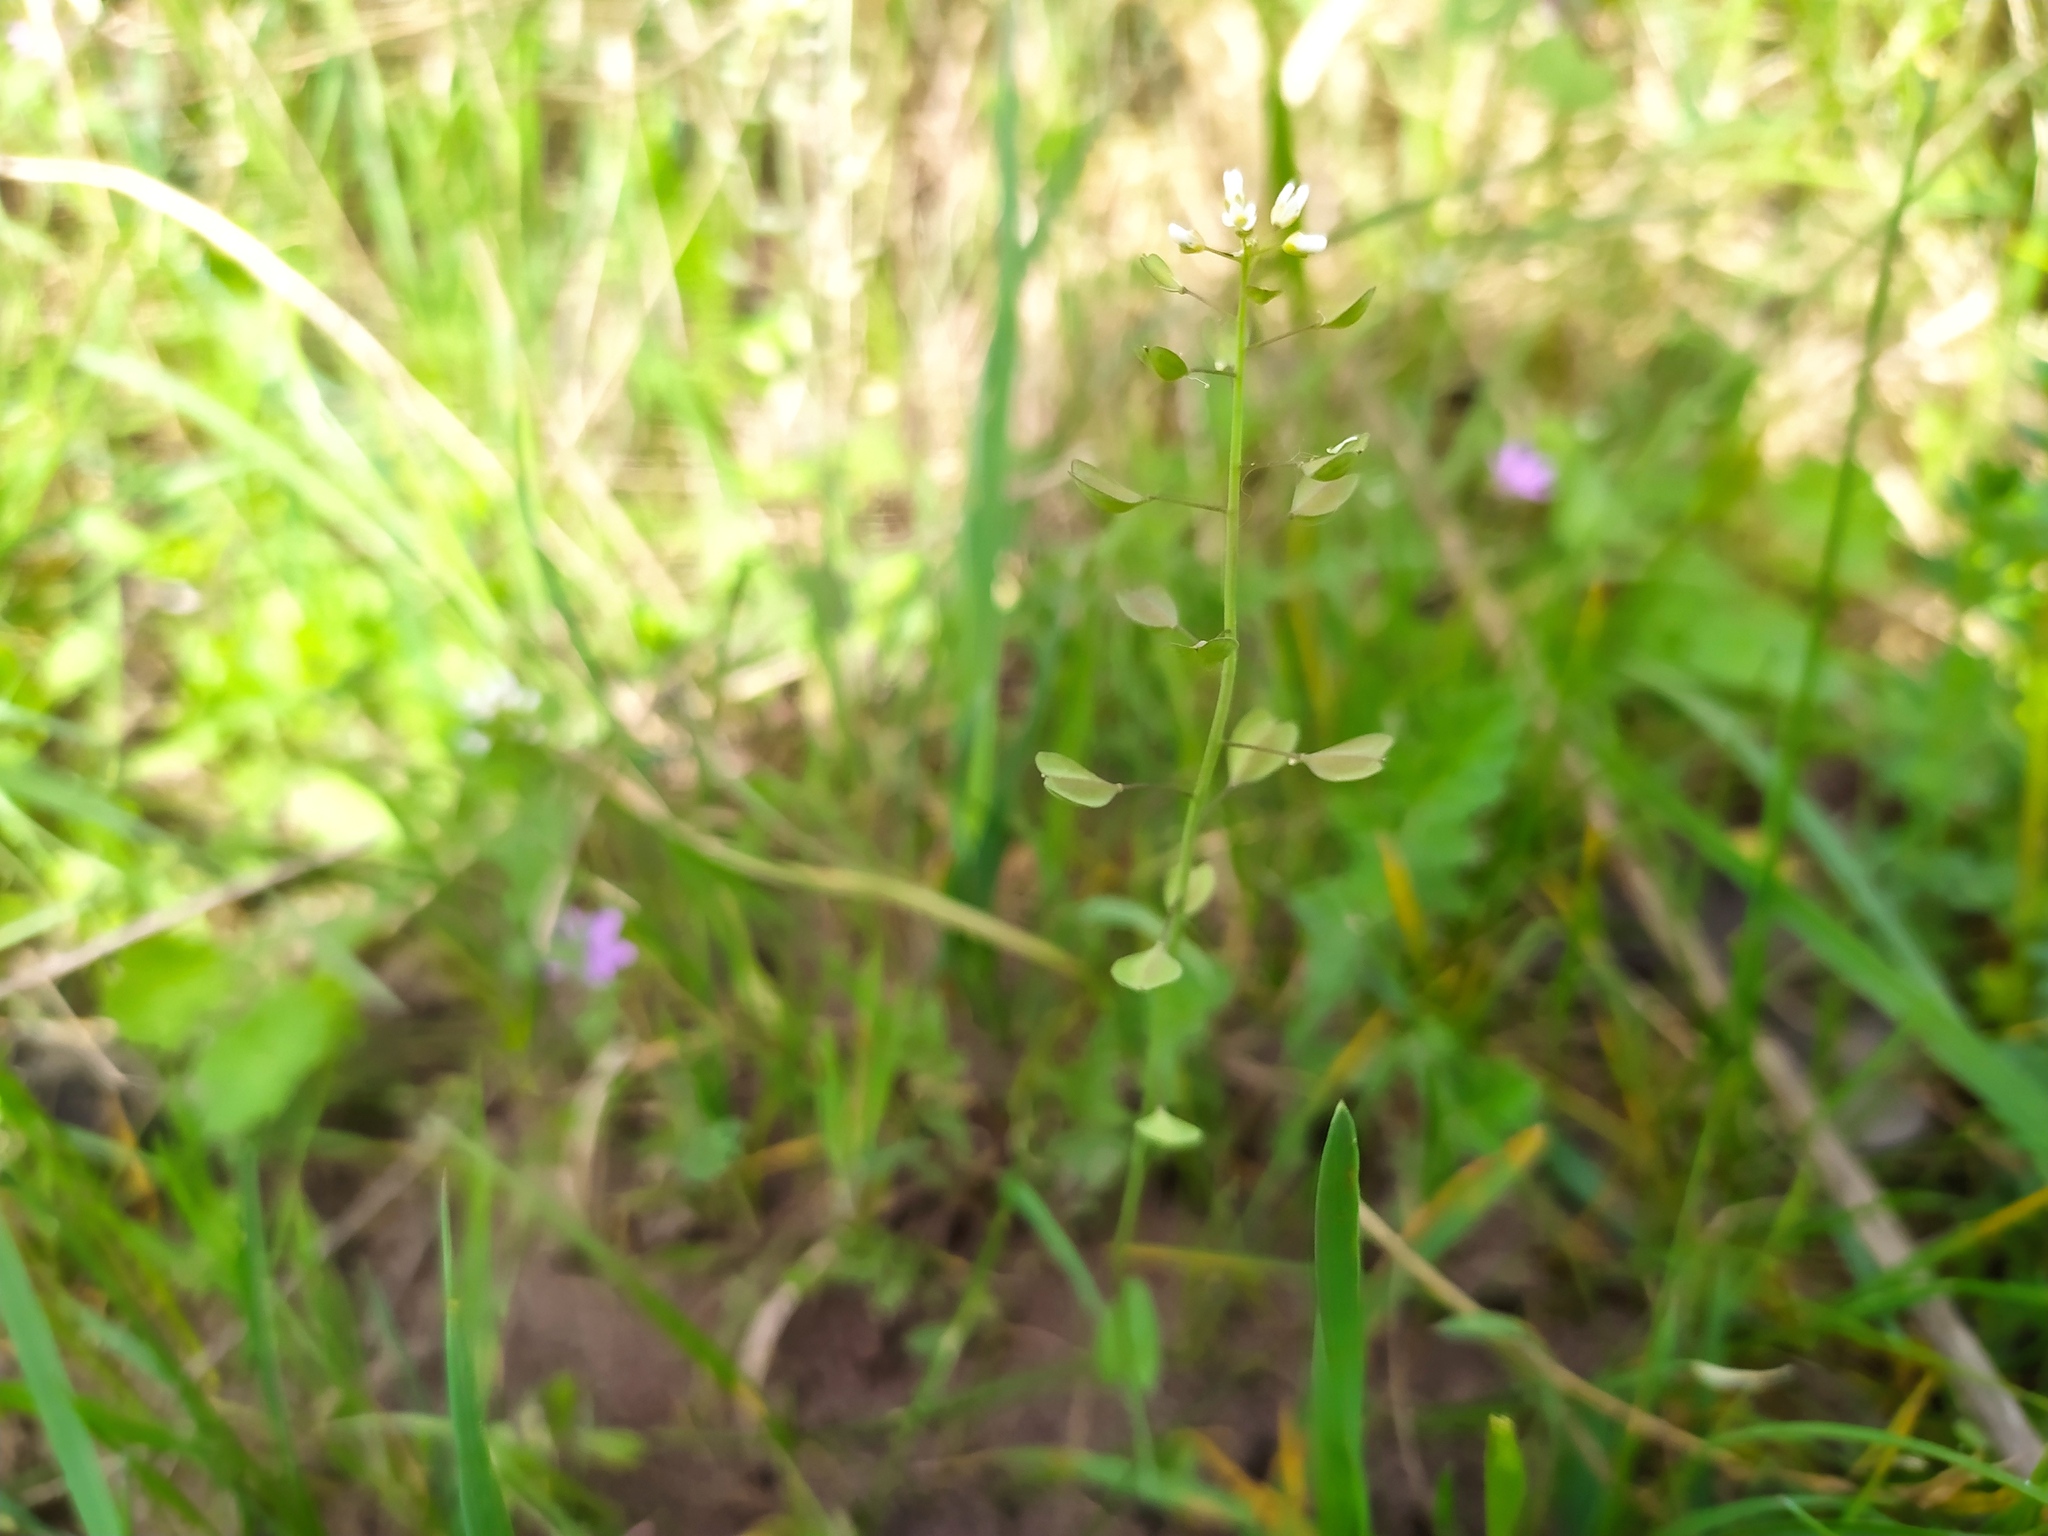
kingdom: Plantae
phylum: Tracheophyta
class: Magnoliopsida
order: Brassicales
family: Brassicaceae
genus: Noccaea
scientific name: Noccaea perfoliata
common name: Perfoliate pennycress
